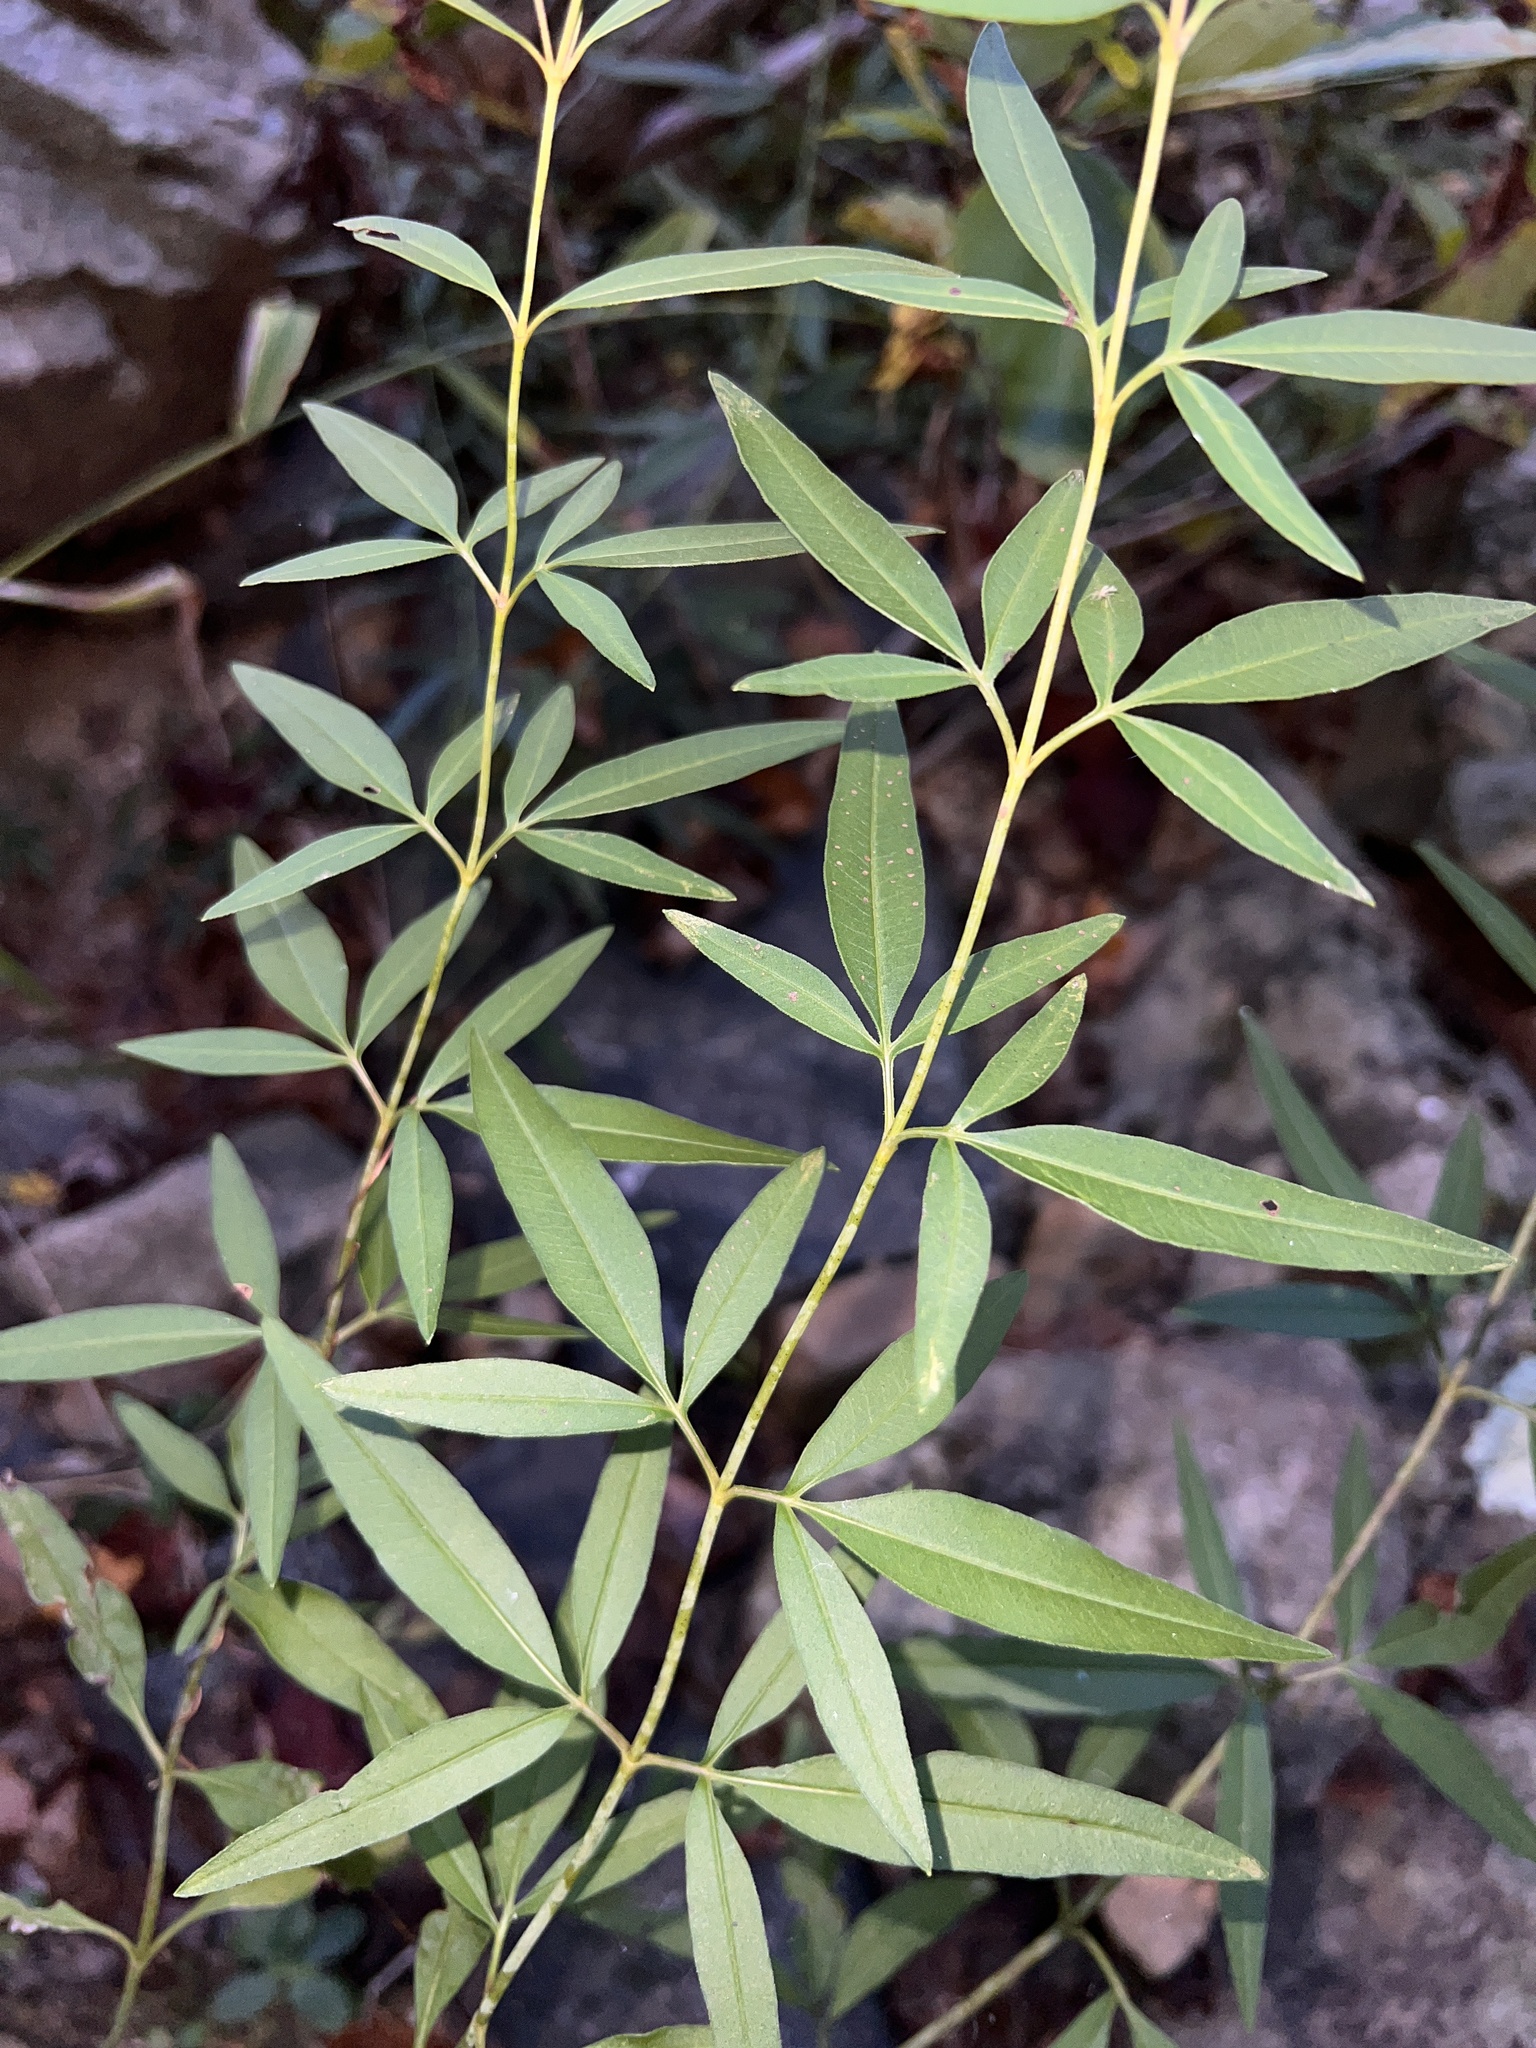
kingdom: Plantae
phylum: Tracheophyta
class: Magnoliopsida
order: Asterales
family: Asteraceae
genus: Coreopsis
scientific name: Coreopsis tripteris
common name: Tall coreopsis
